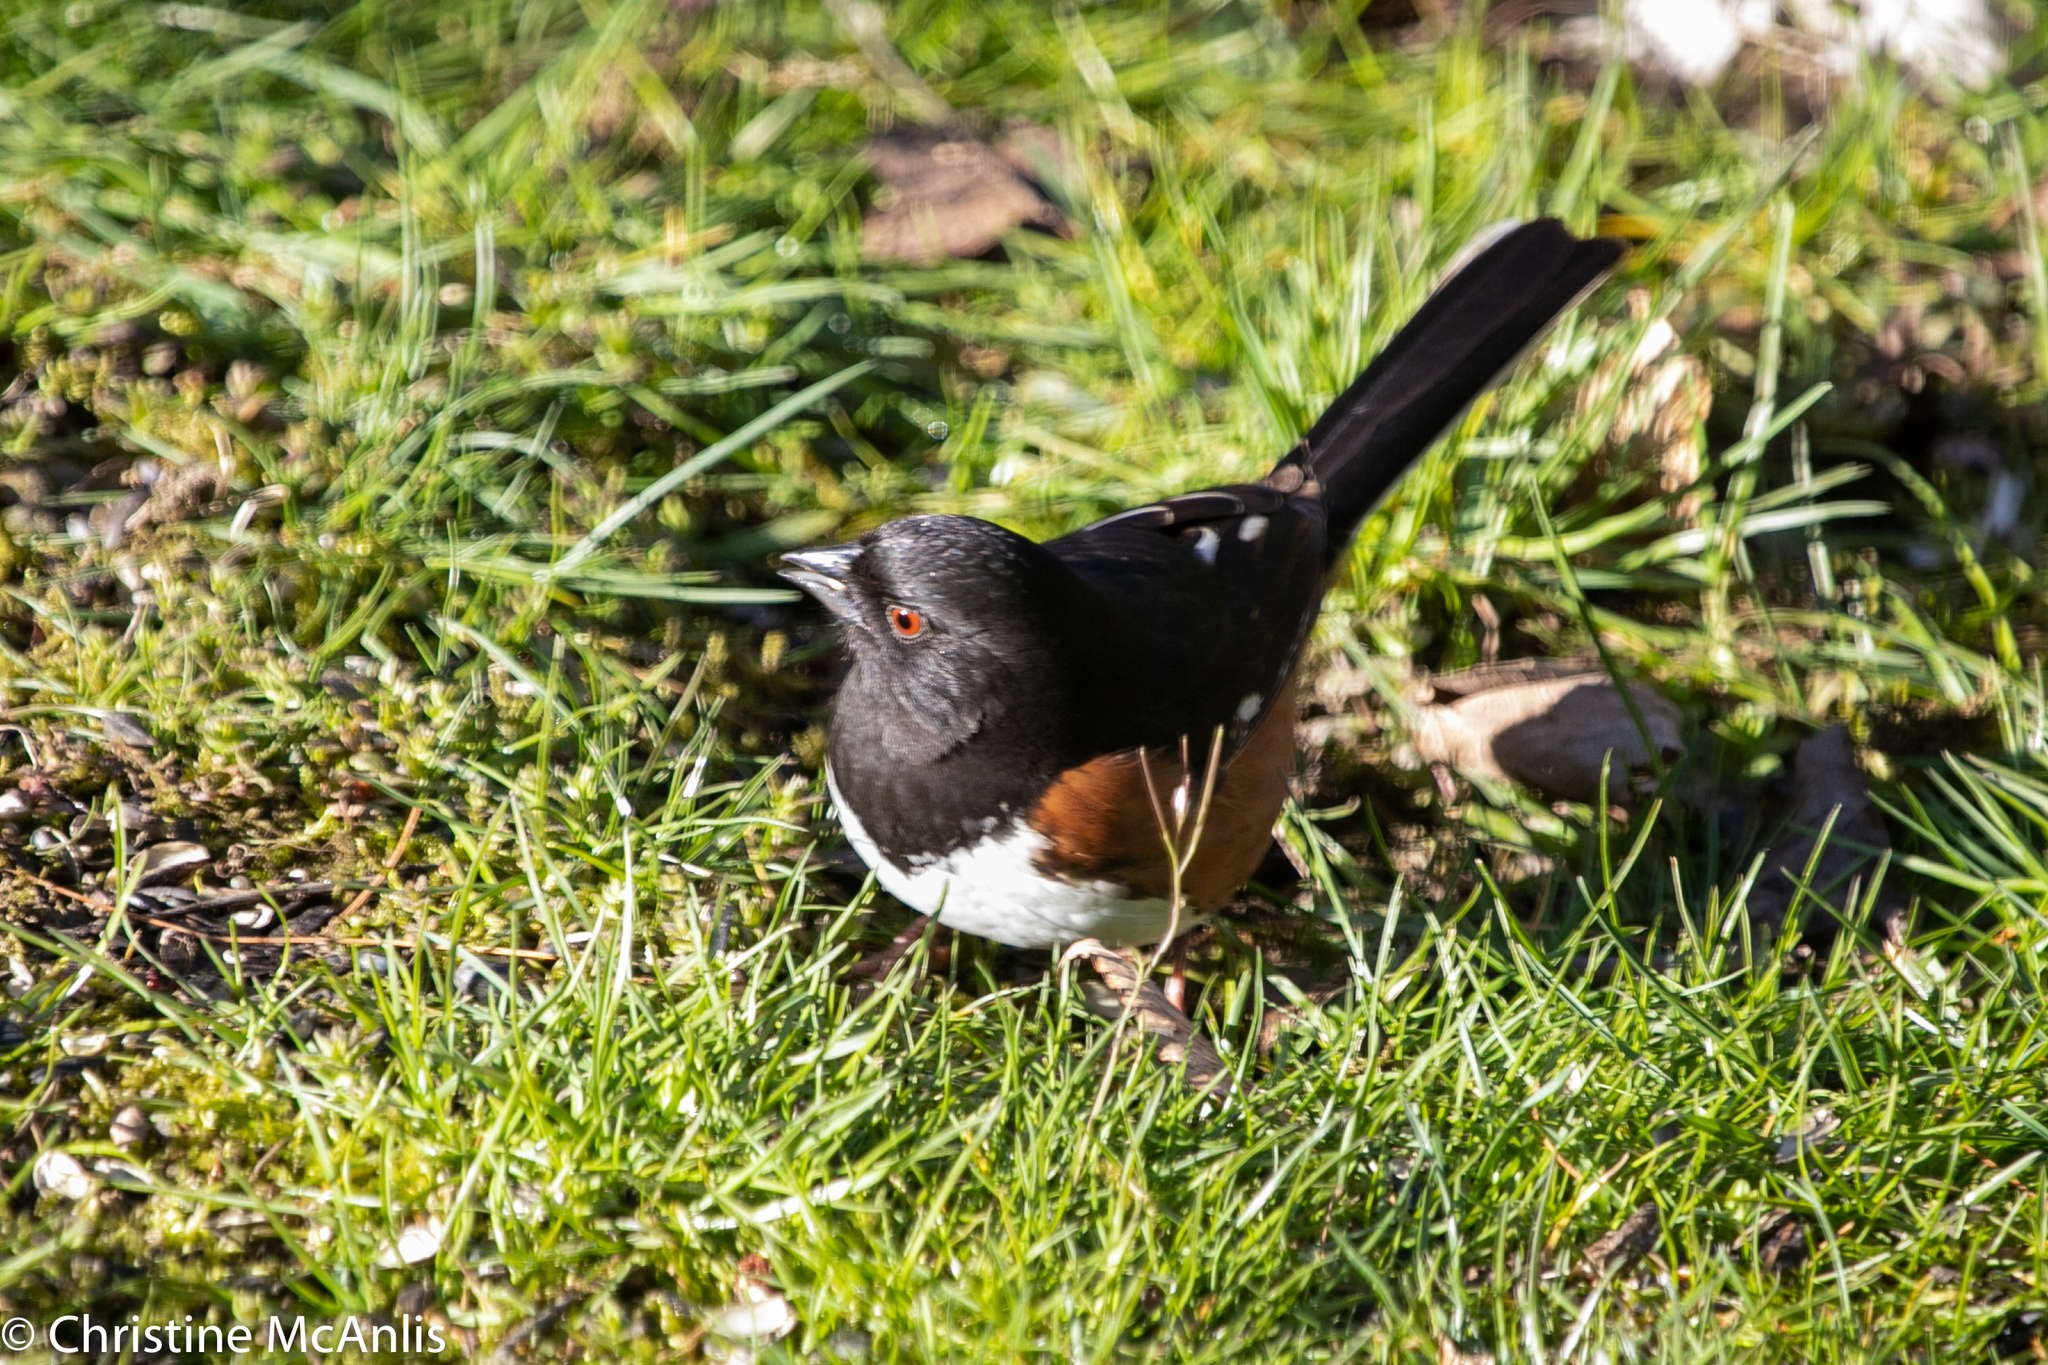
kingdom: Animalia
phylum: Chordata
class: Aves
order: Passeriformes
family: Passerellidae
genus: Pipilo
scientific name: Pipilo erythrophthalmus
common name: Eastern towhee
